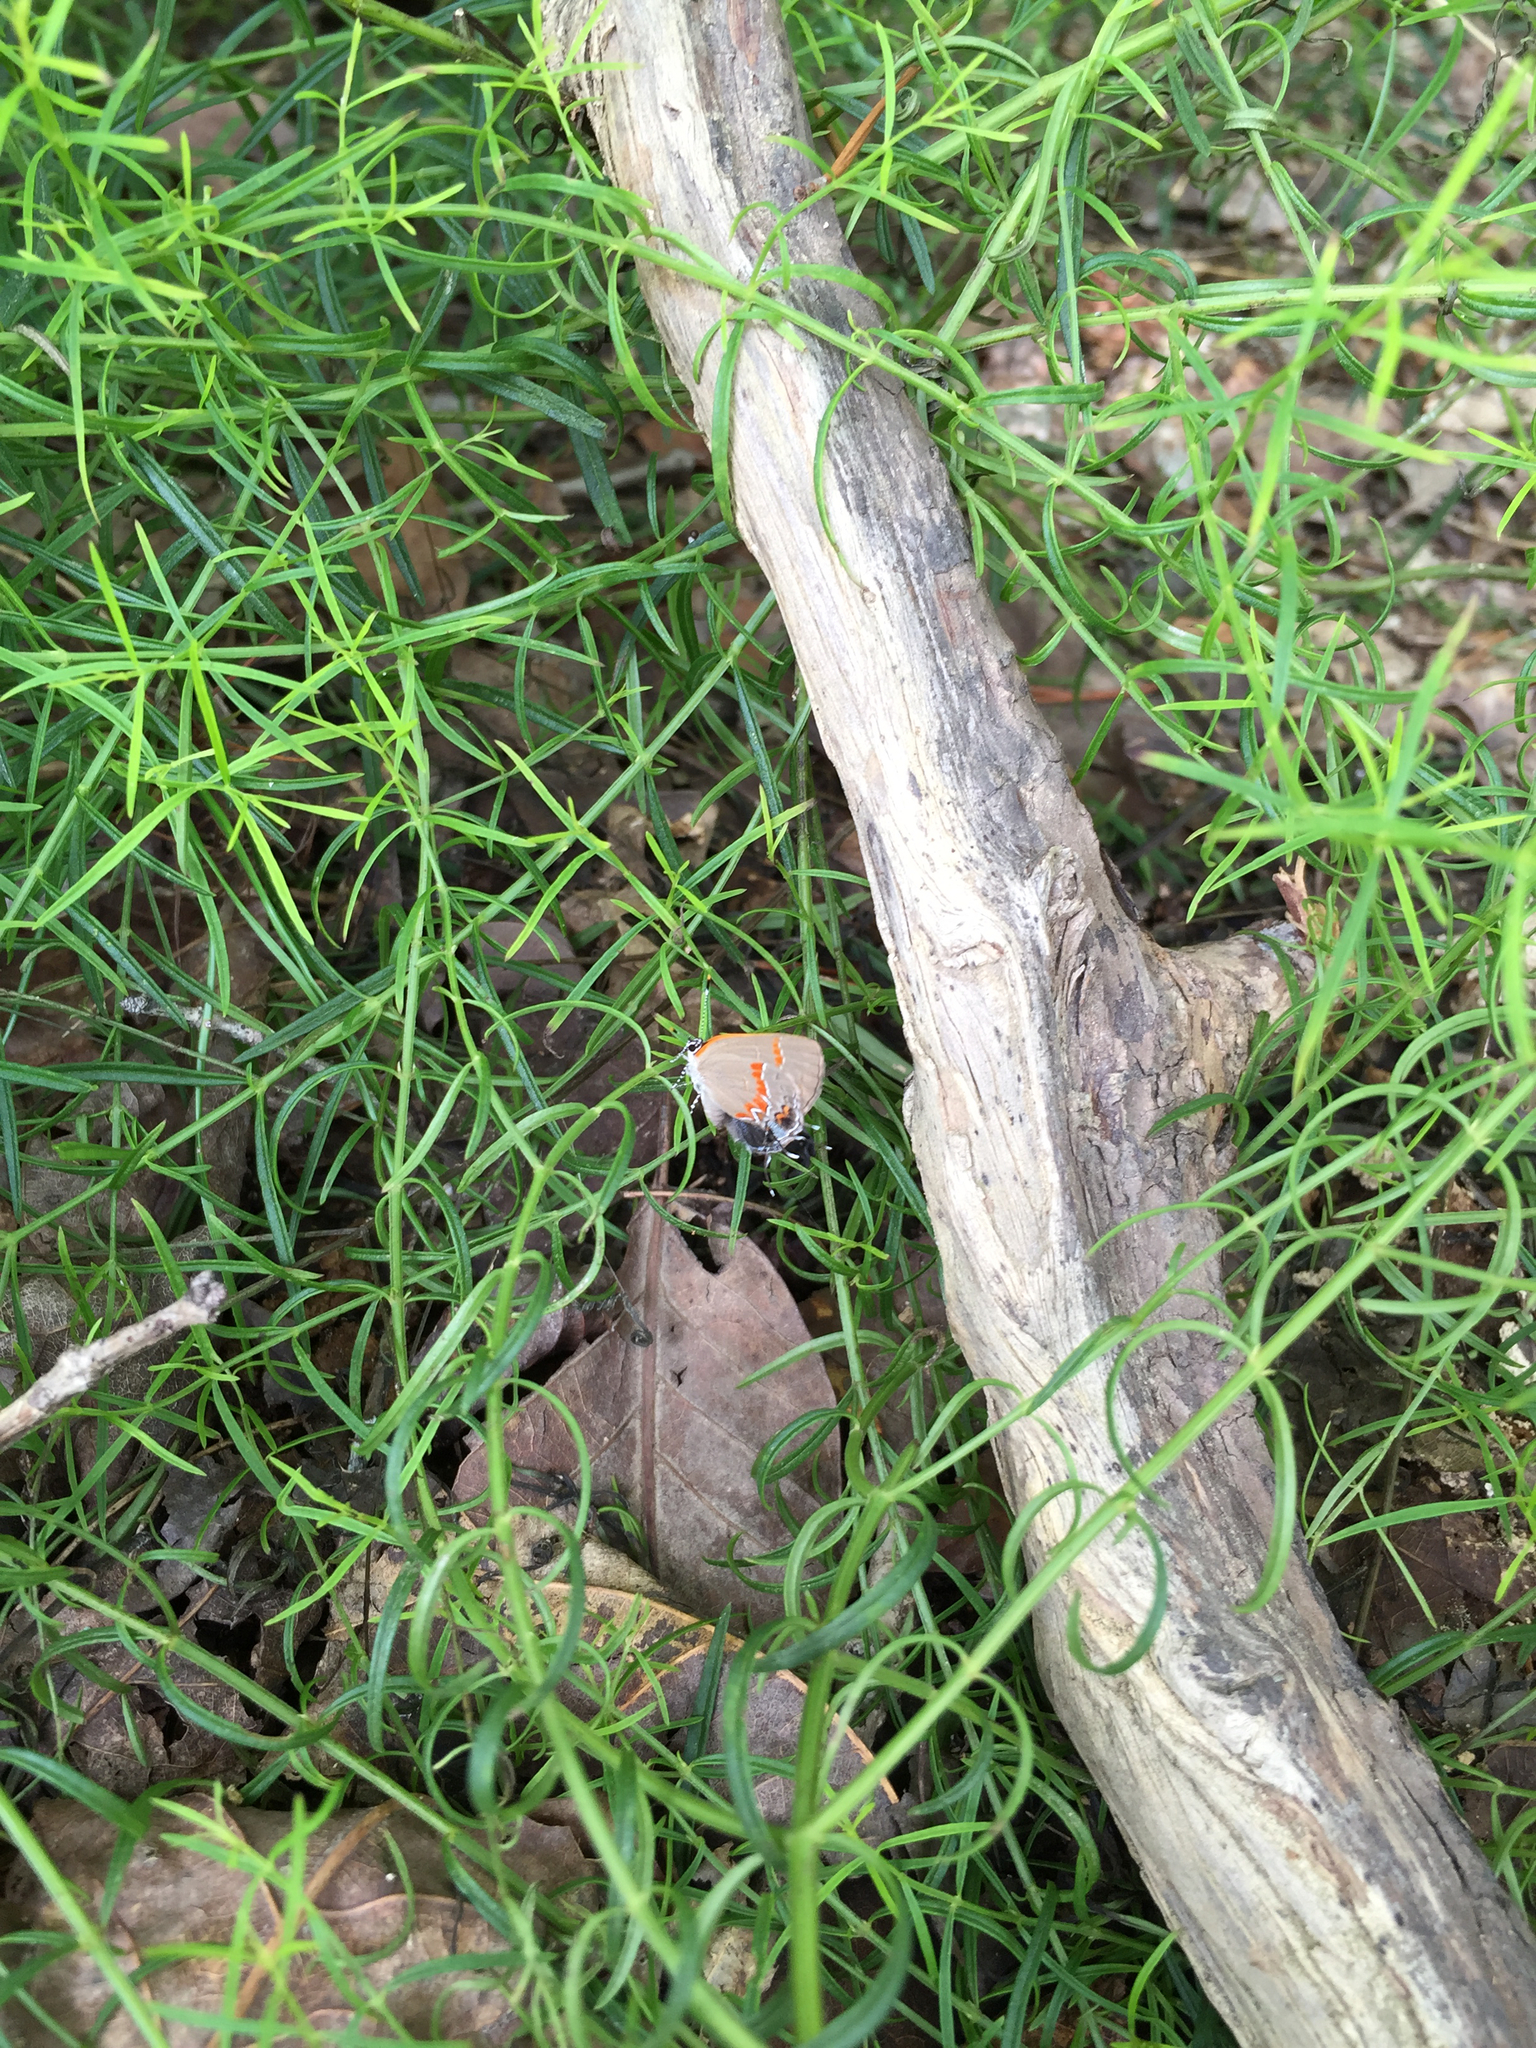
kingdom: Animalia
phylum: Arthropoda
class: Insecta
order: Lepidoptera
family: Lycaenidae
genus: Calycopis
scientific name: Calycopis cecrops
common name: Red-banded hairstreak
